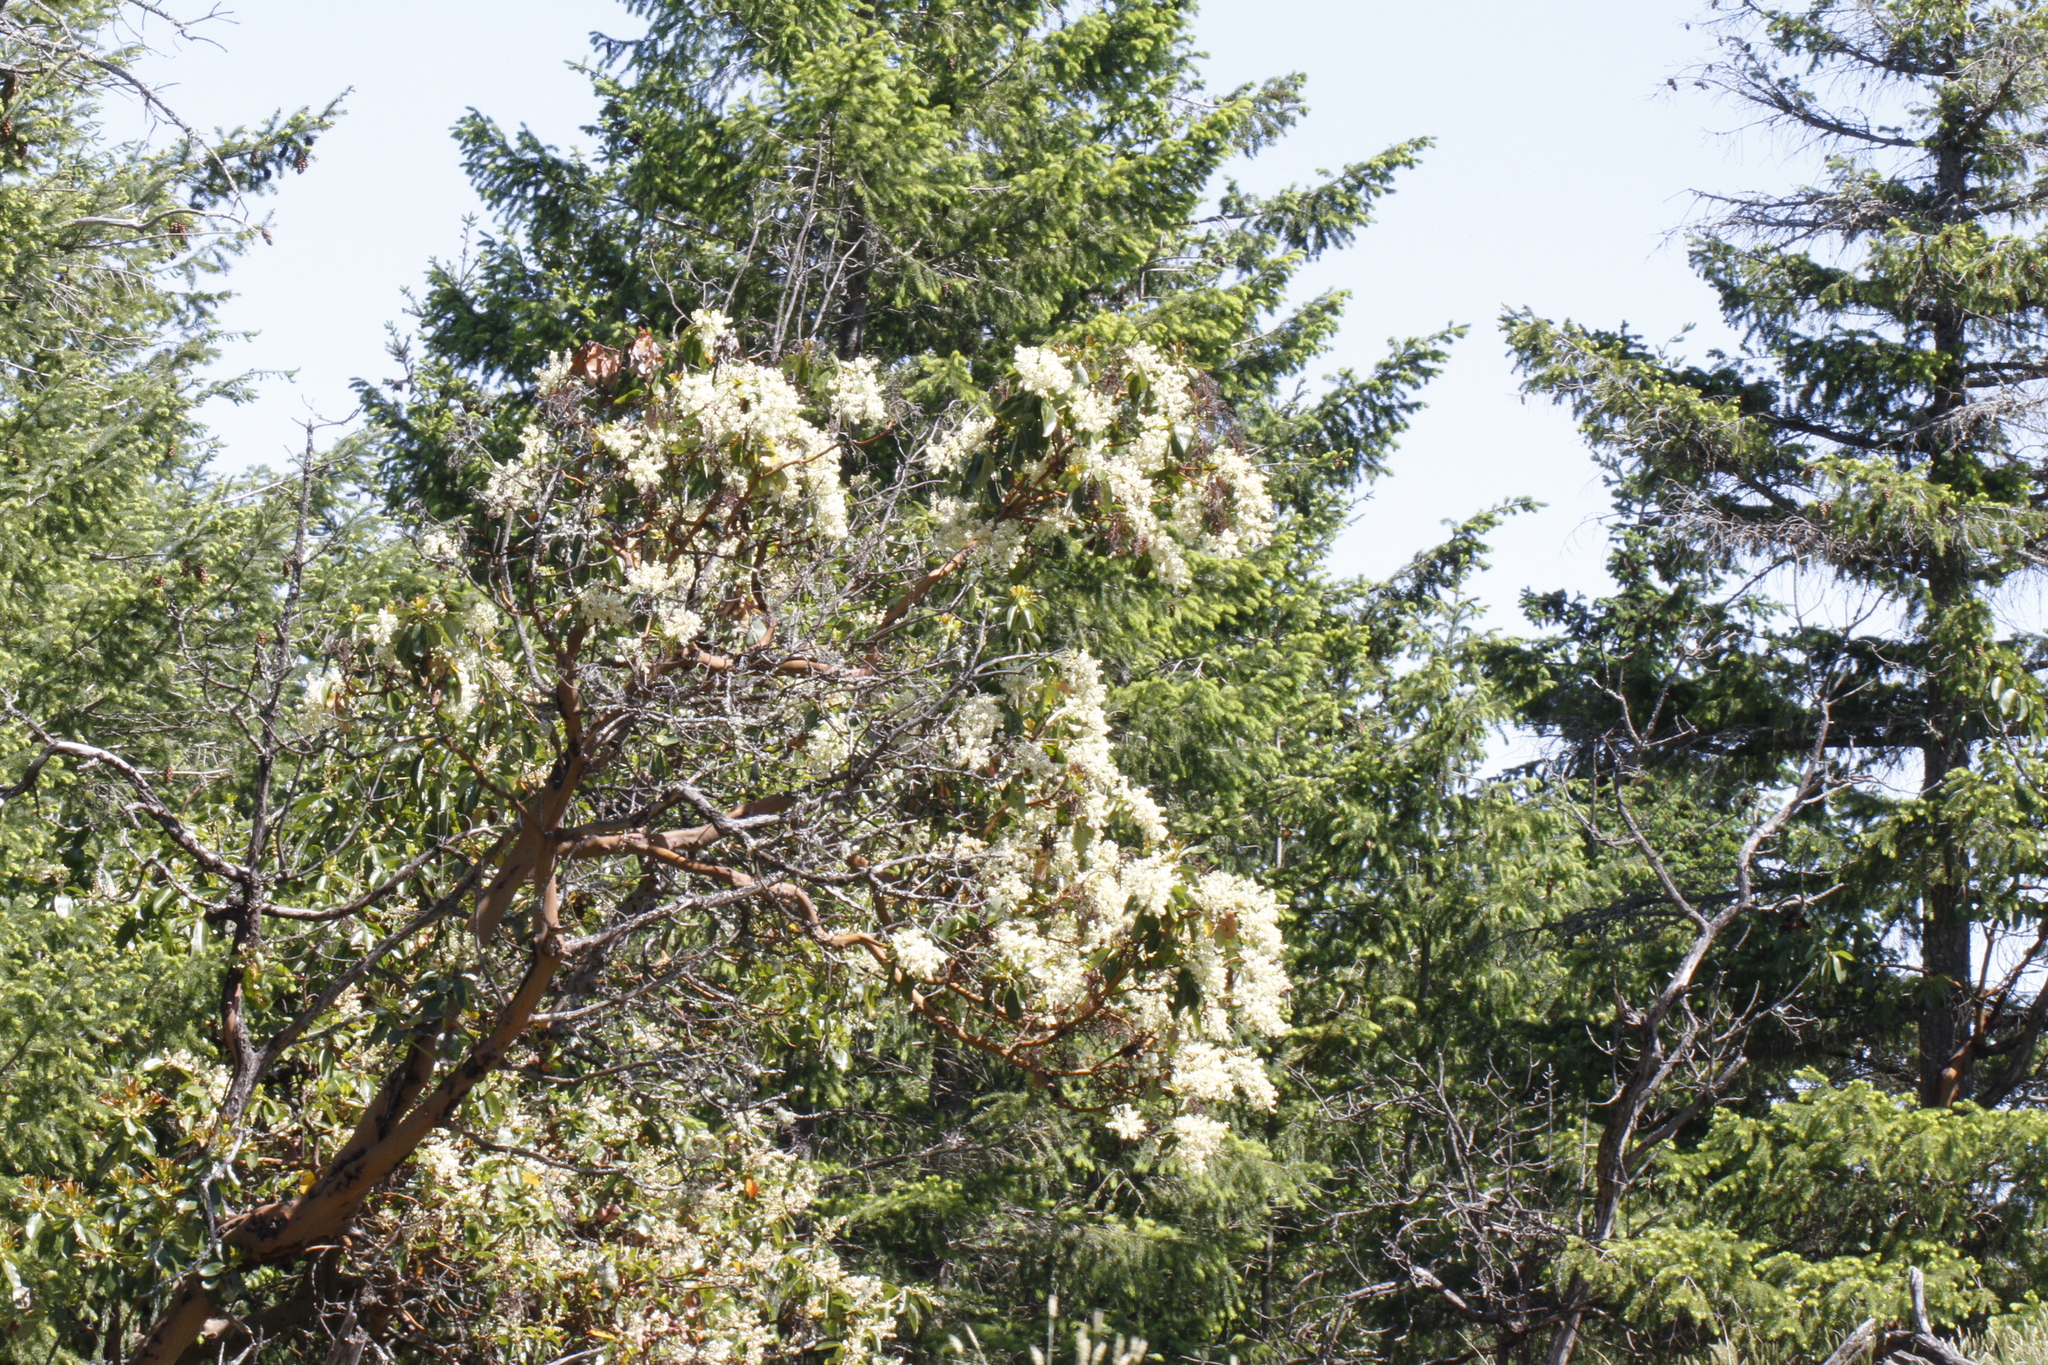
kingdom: Plantae
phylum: Tracheophyta
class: Magnoliopsida
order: Ericales
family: Ericaceae
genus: Arbutus
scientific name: Arbutus menziesii
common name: Pacific madrone
